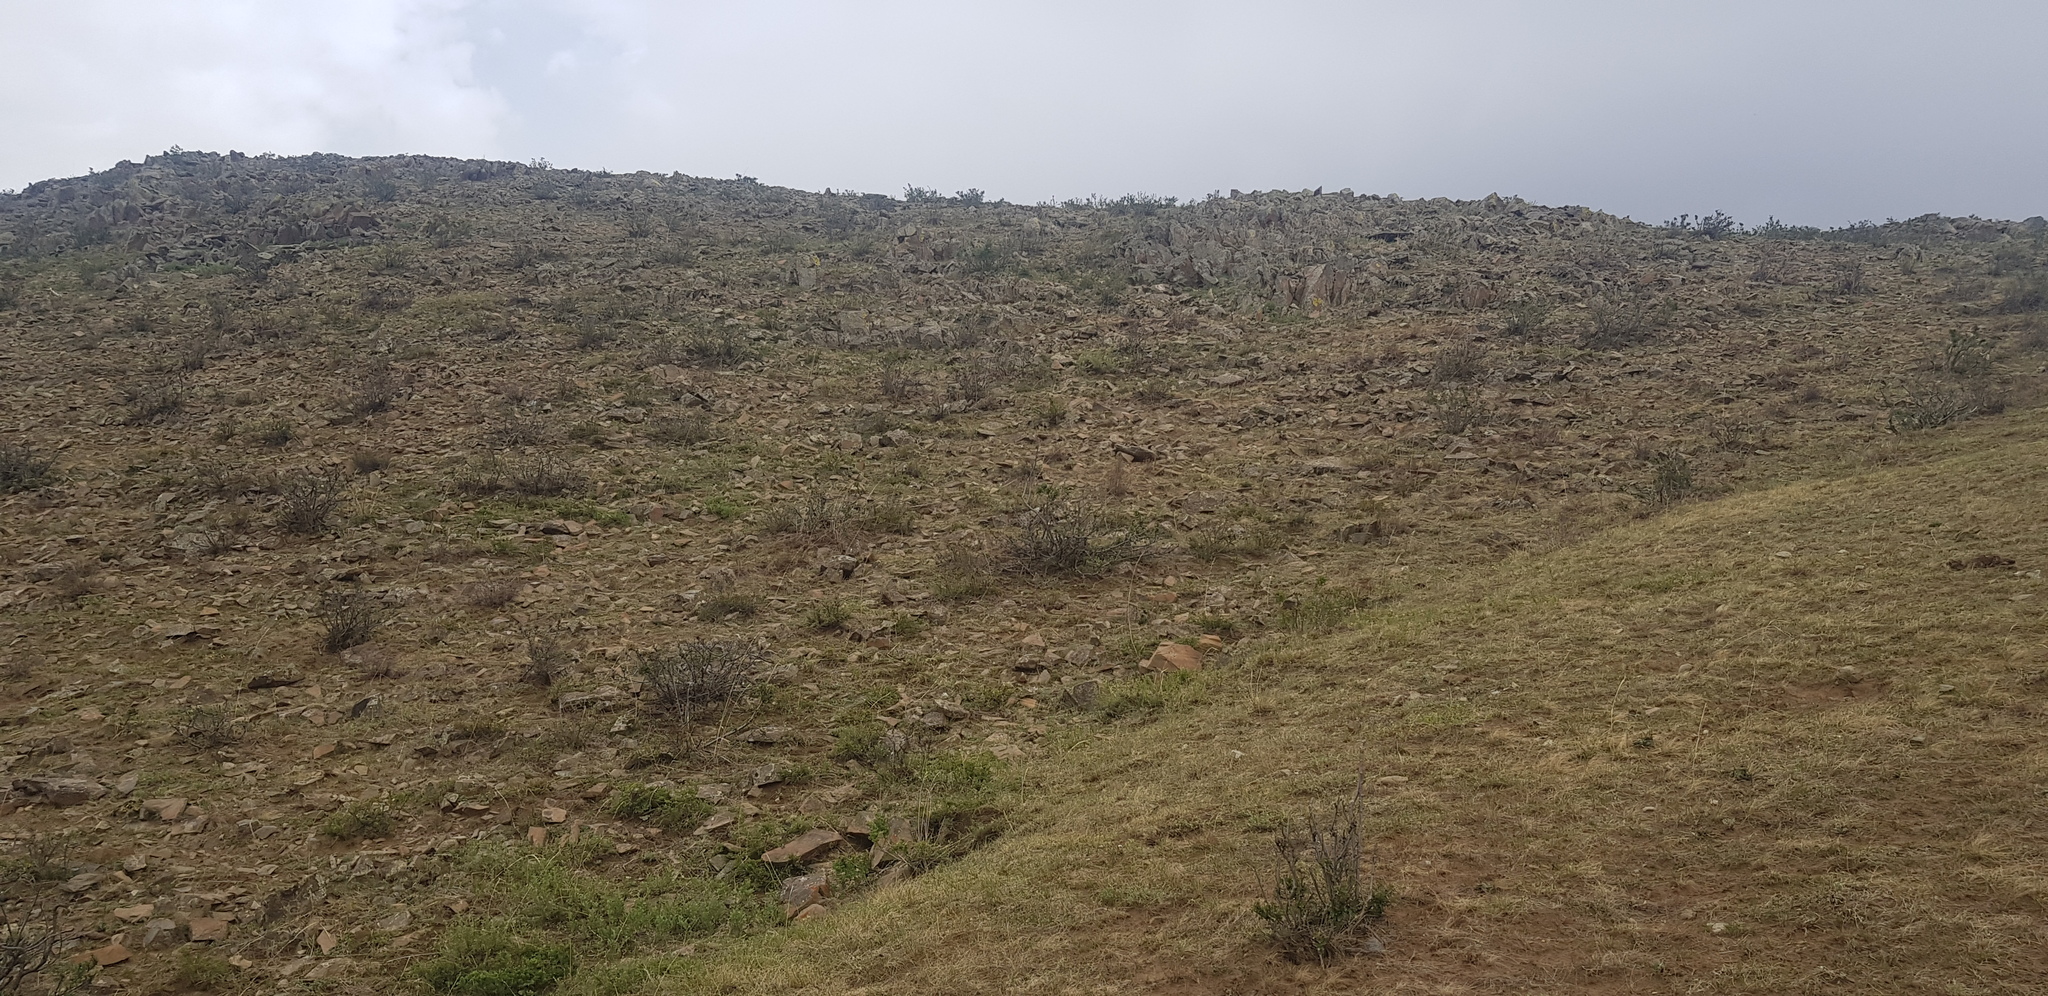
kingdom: Plantae
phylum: Tracheophyta
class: Magnoliopsida
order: Rosales
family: Rosaceae
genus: Prunus
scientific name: Prunus pedunculata
